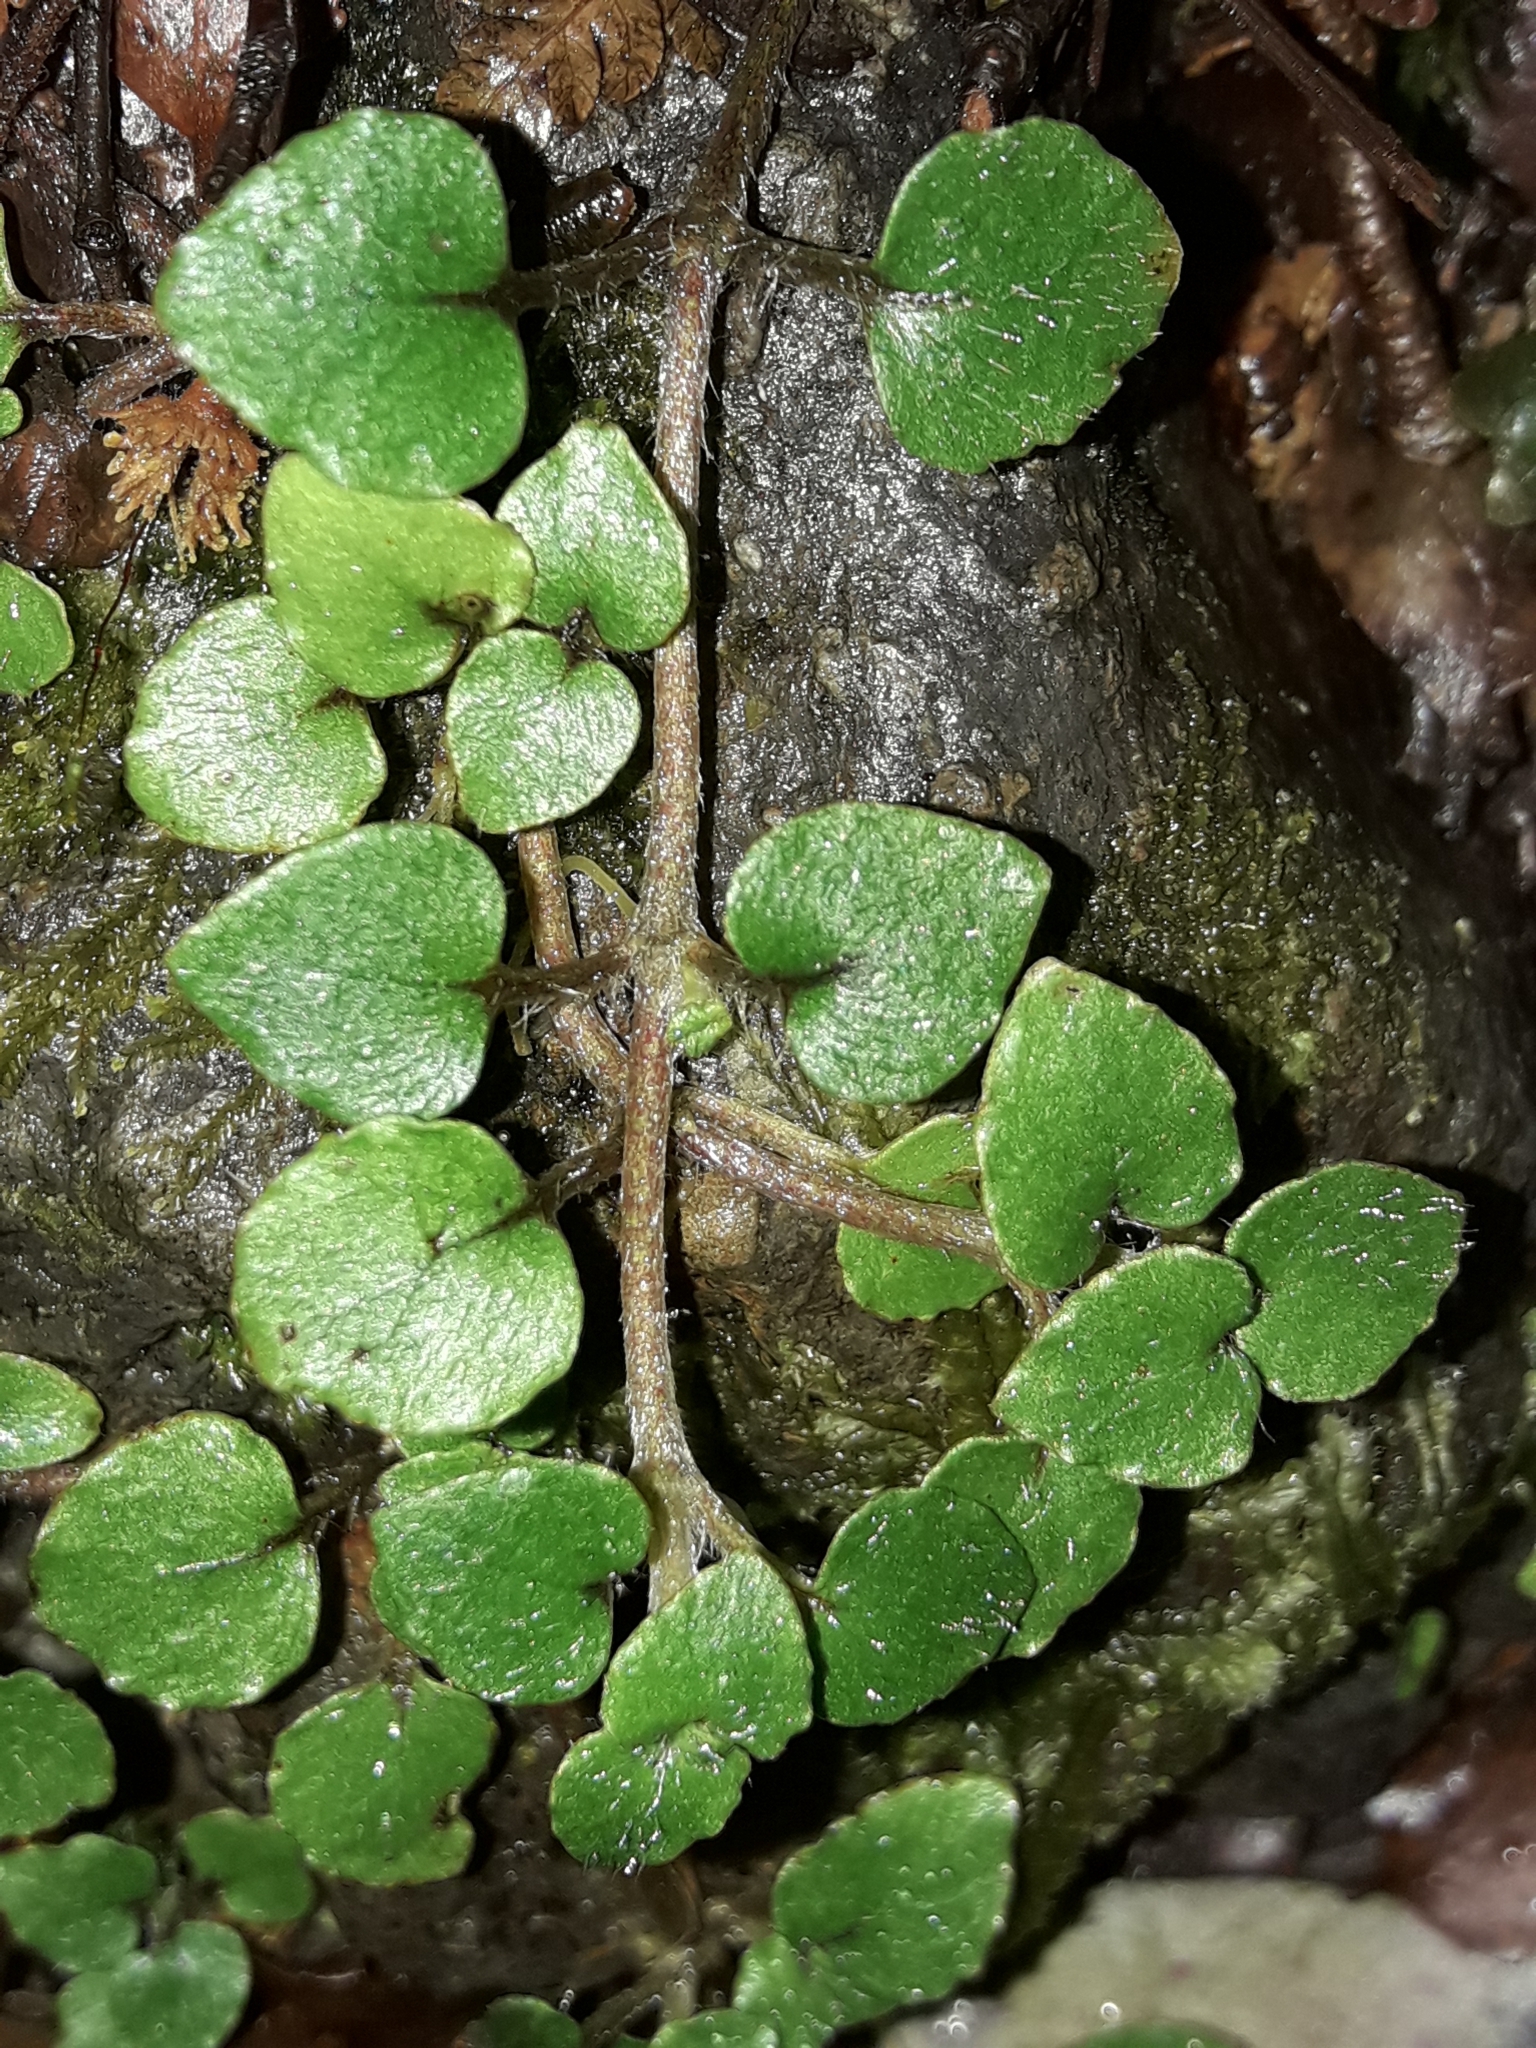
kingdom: Plantae
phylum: Tracheophyta
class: Magnoliopsida
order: Gentianales
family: Rubiaceae
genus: Nertera
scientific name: Nertera villosa
